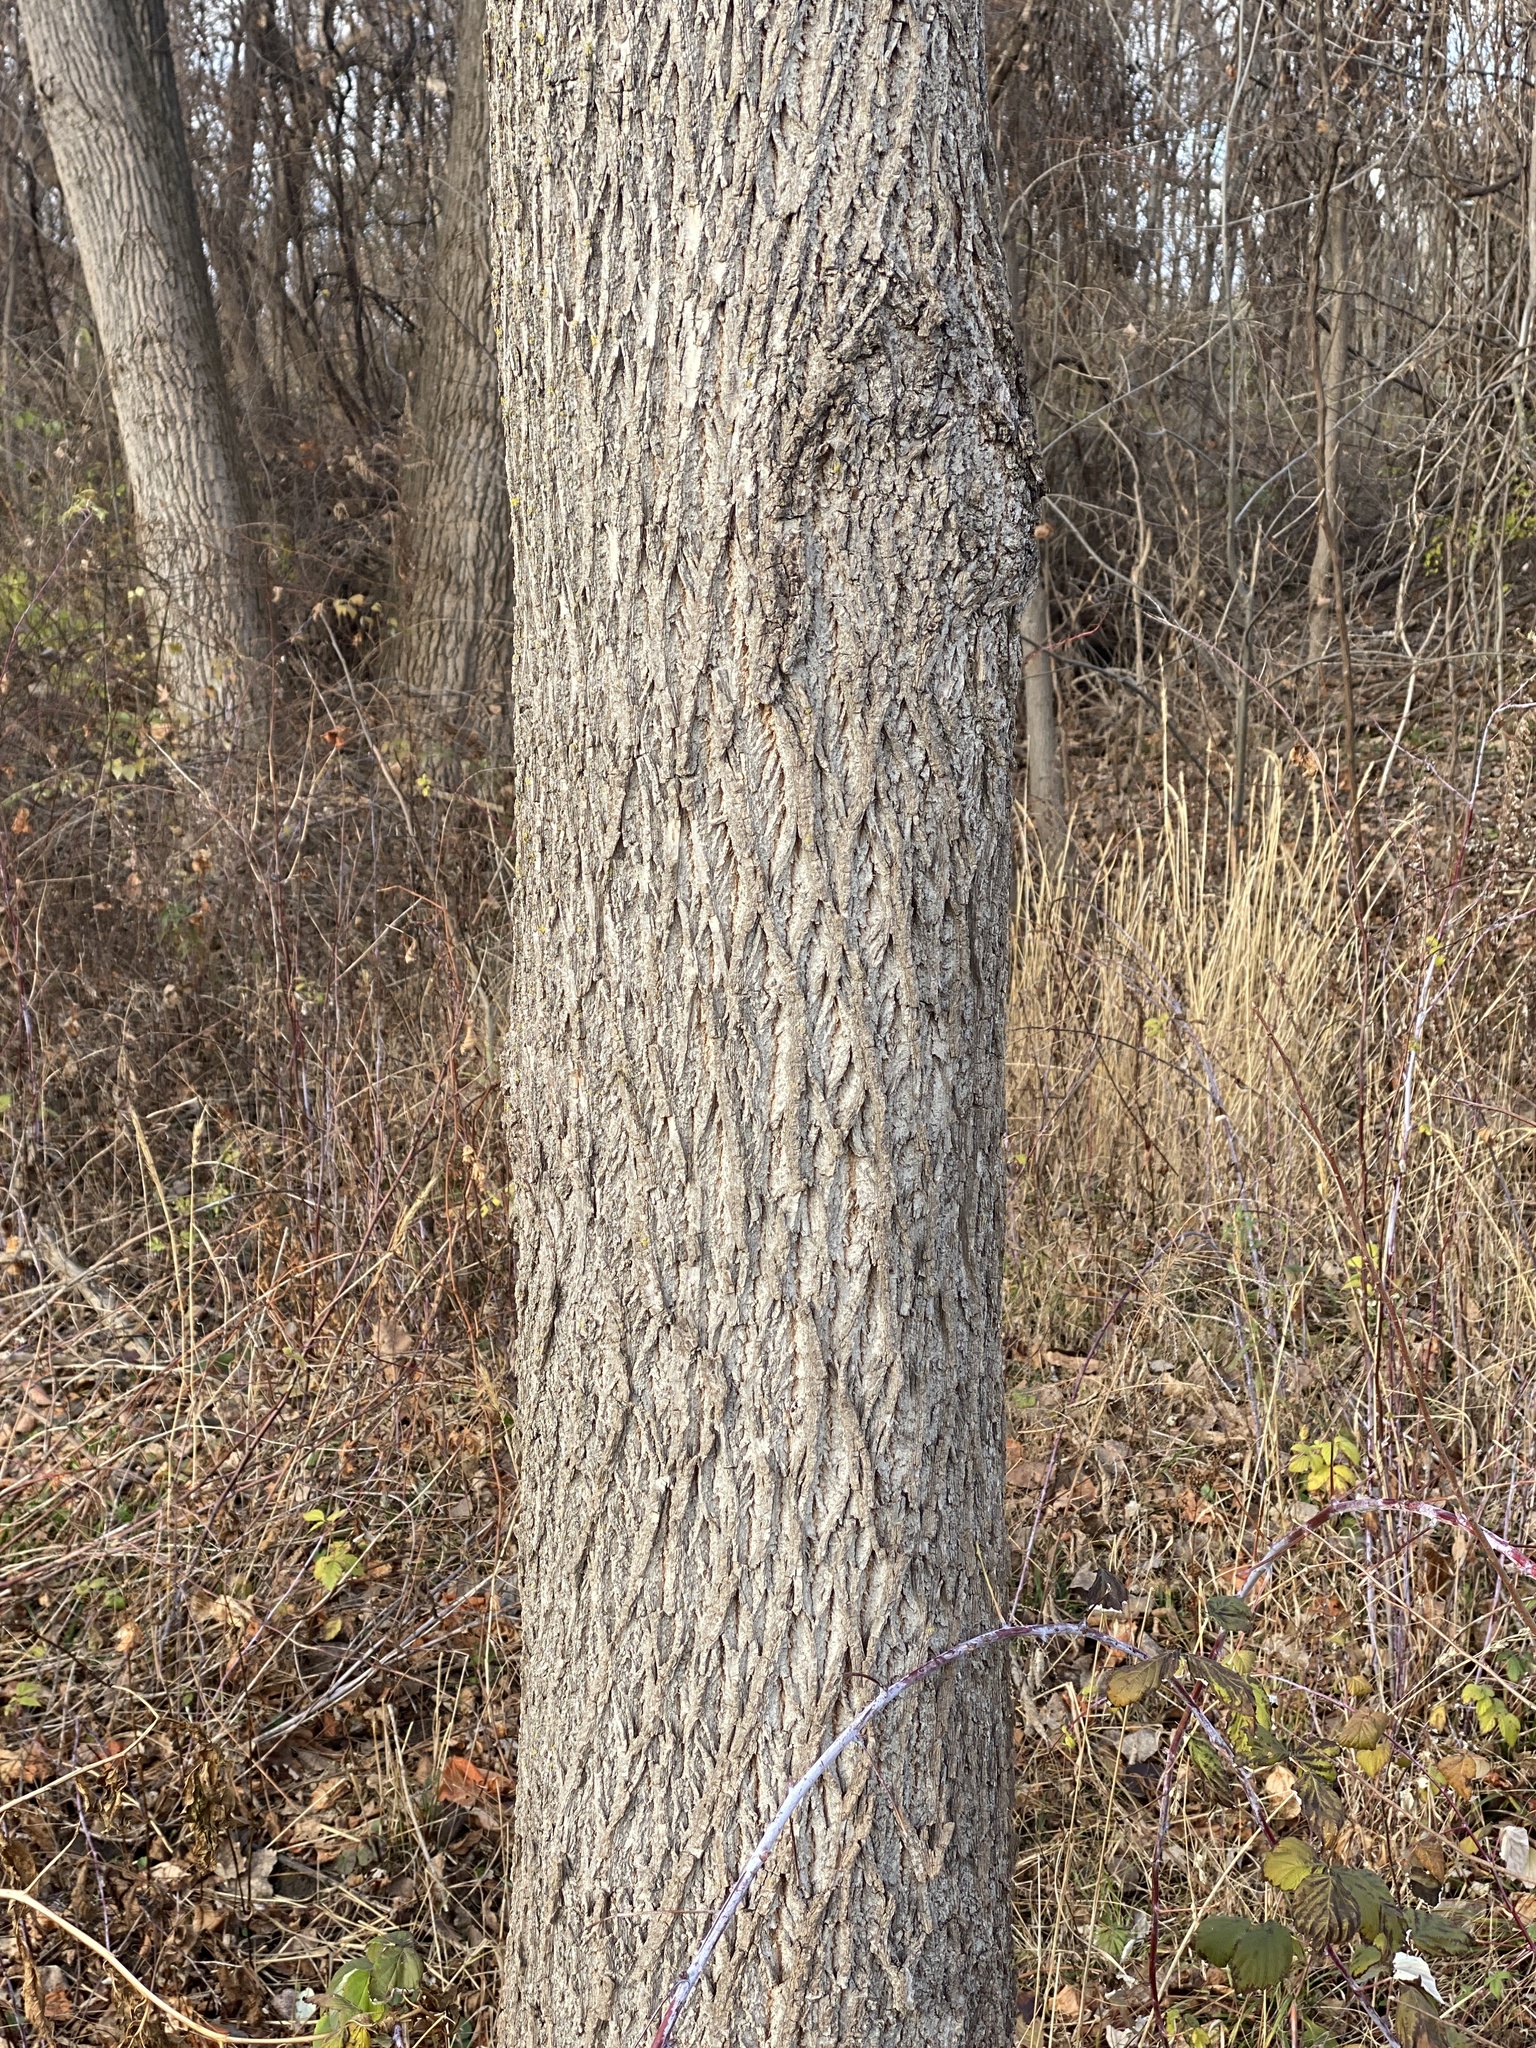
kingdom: Plantae
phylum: Tracheophyta
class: Magnoliopsida
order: Fagales
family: Juglandaceae
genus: Juglans
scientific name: Juglans nigra
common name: Black walnut
